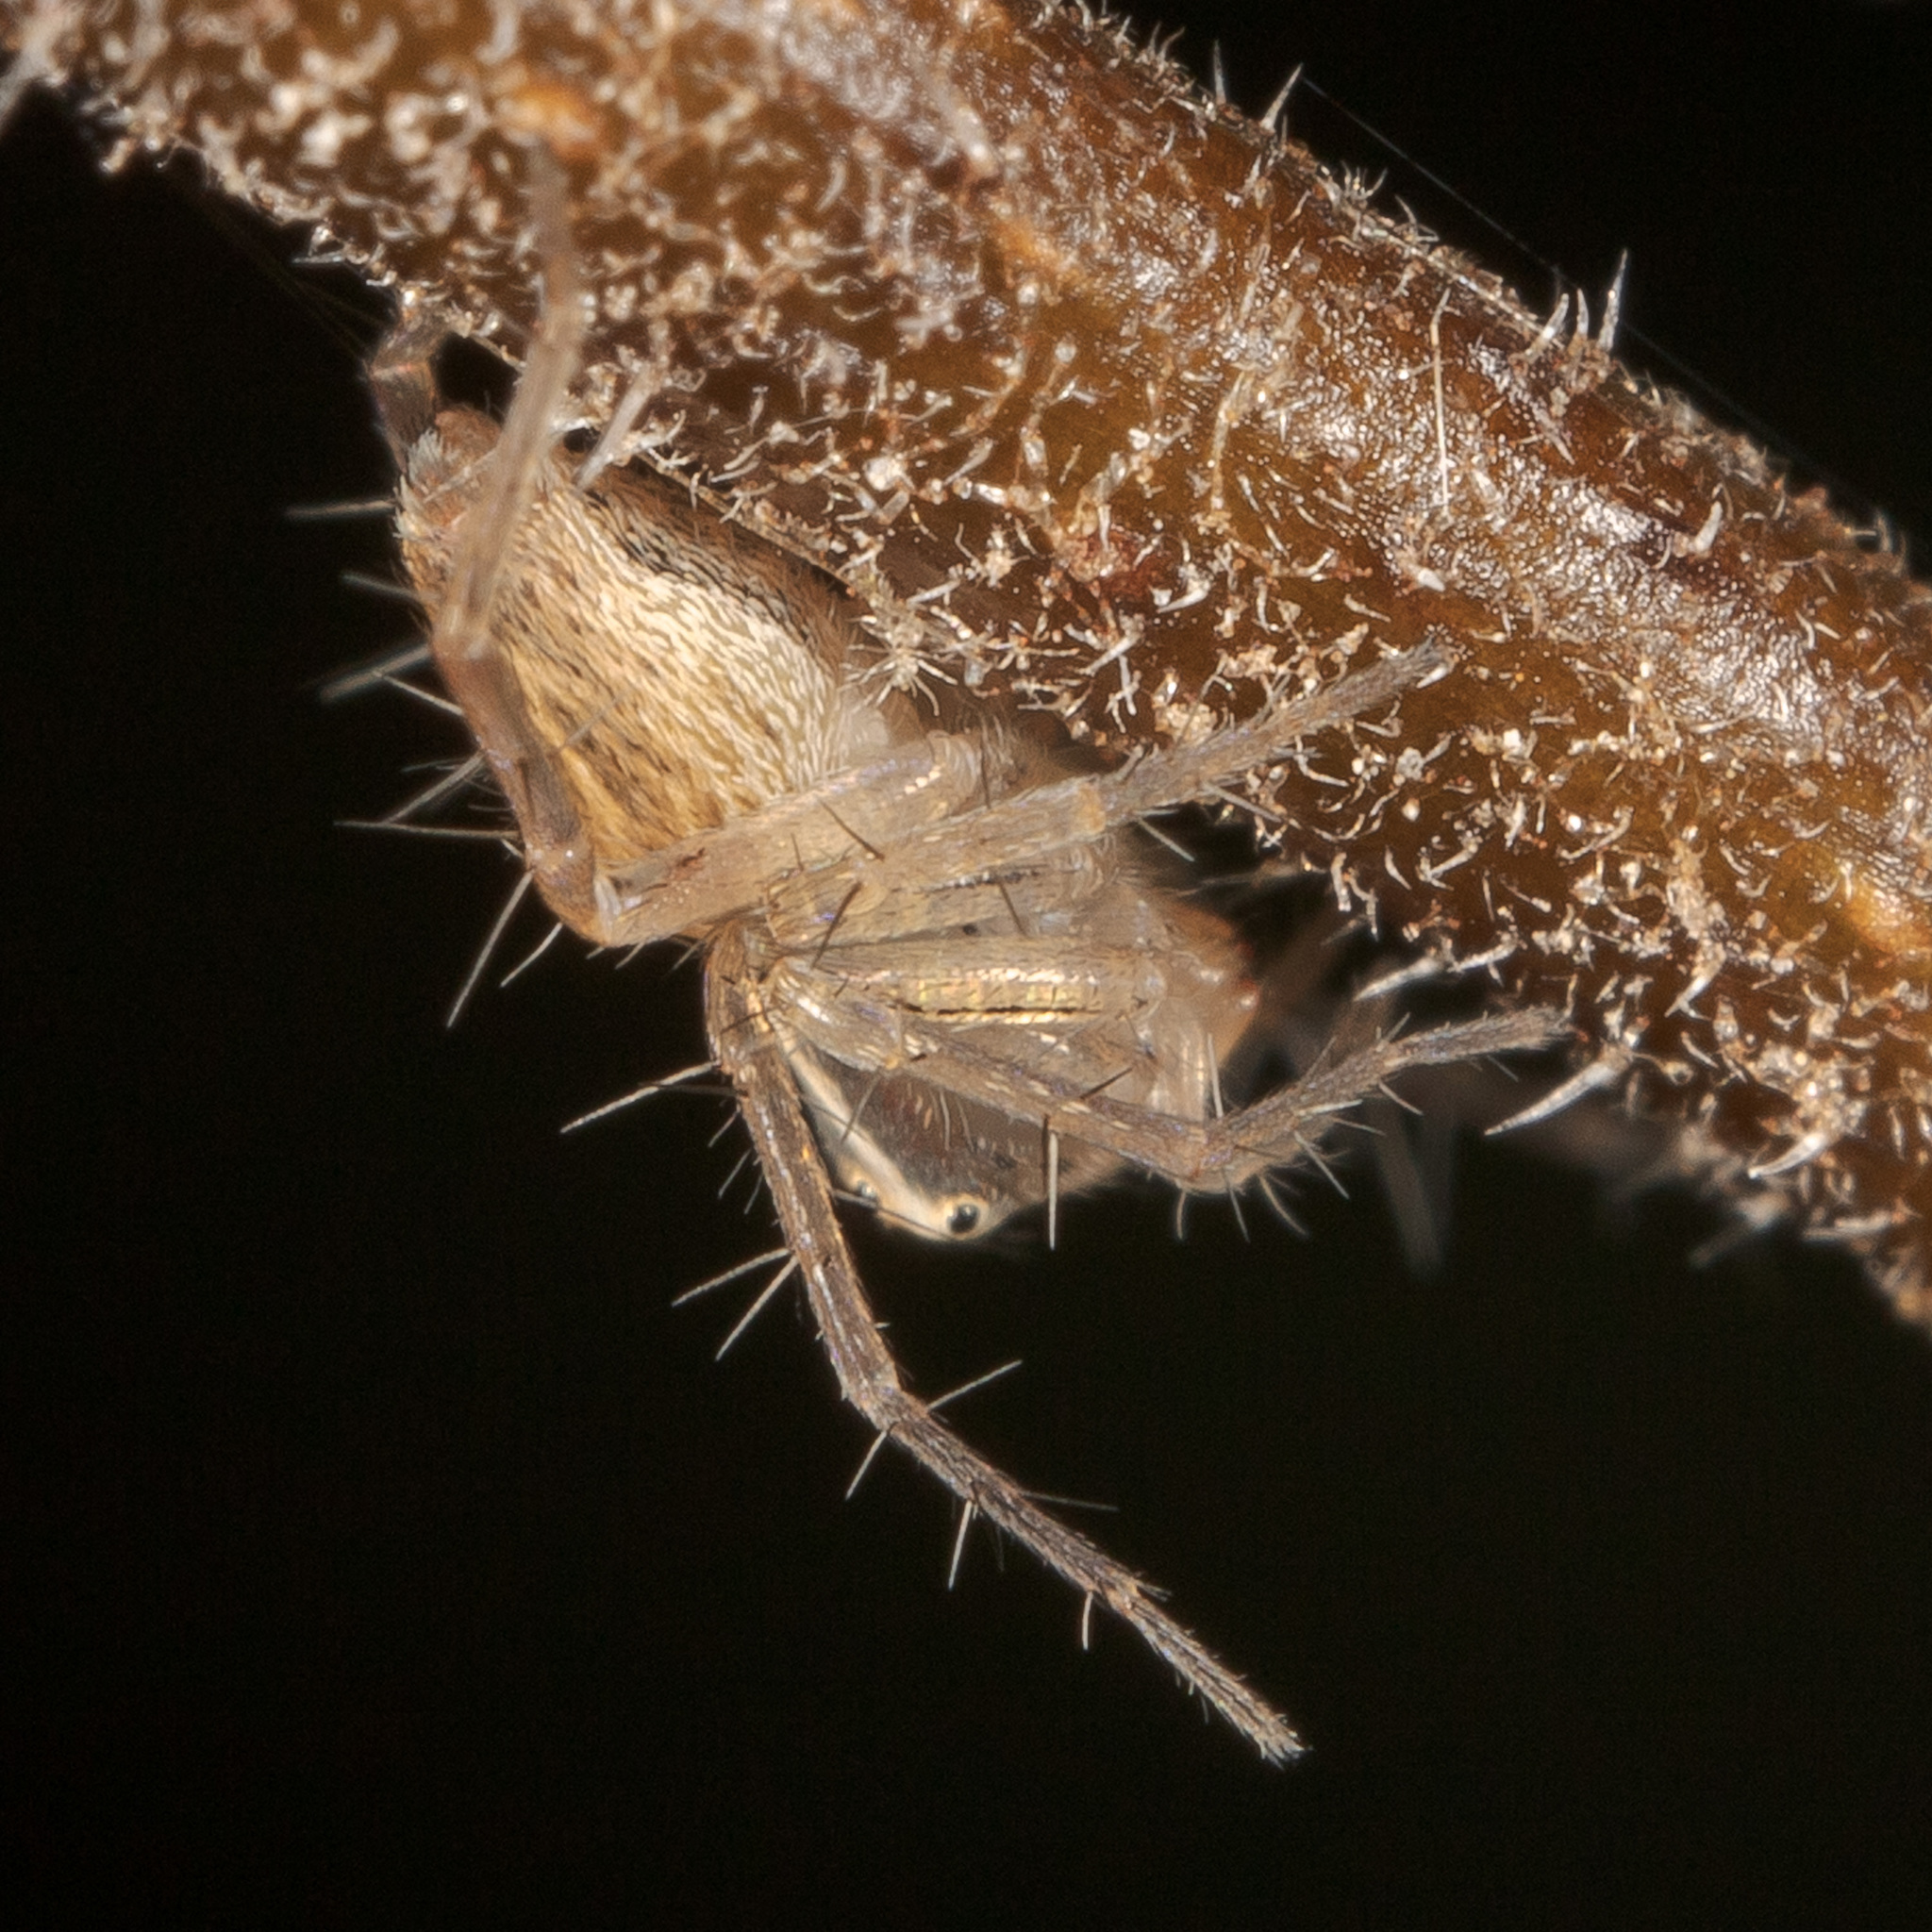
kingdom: Animalia
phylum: Arthropoda
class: Arachnida
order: Araneae
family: Oxyopidae
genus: Oxyopes
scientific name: Oxyopes salticus
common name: Lynx spiders
